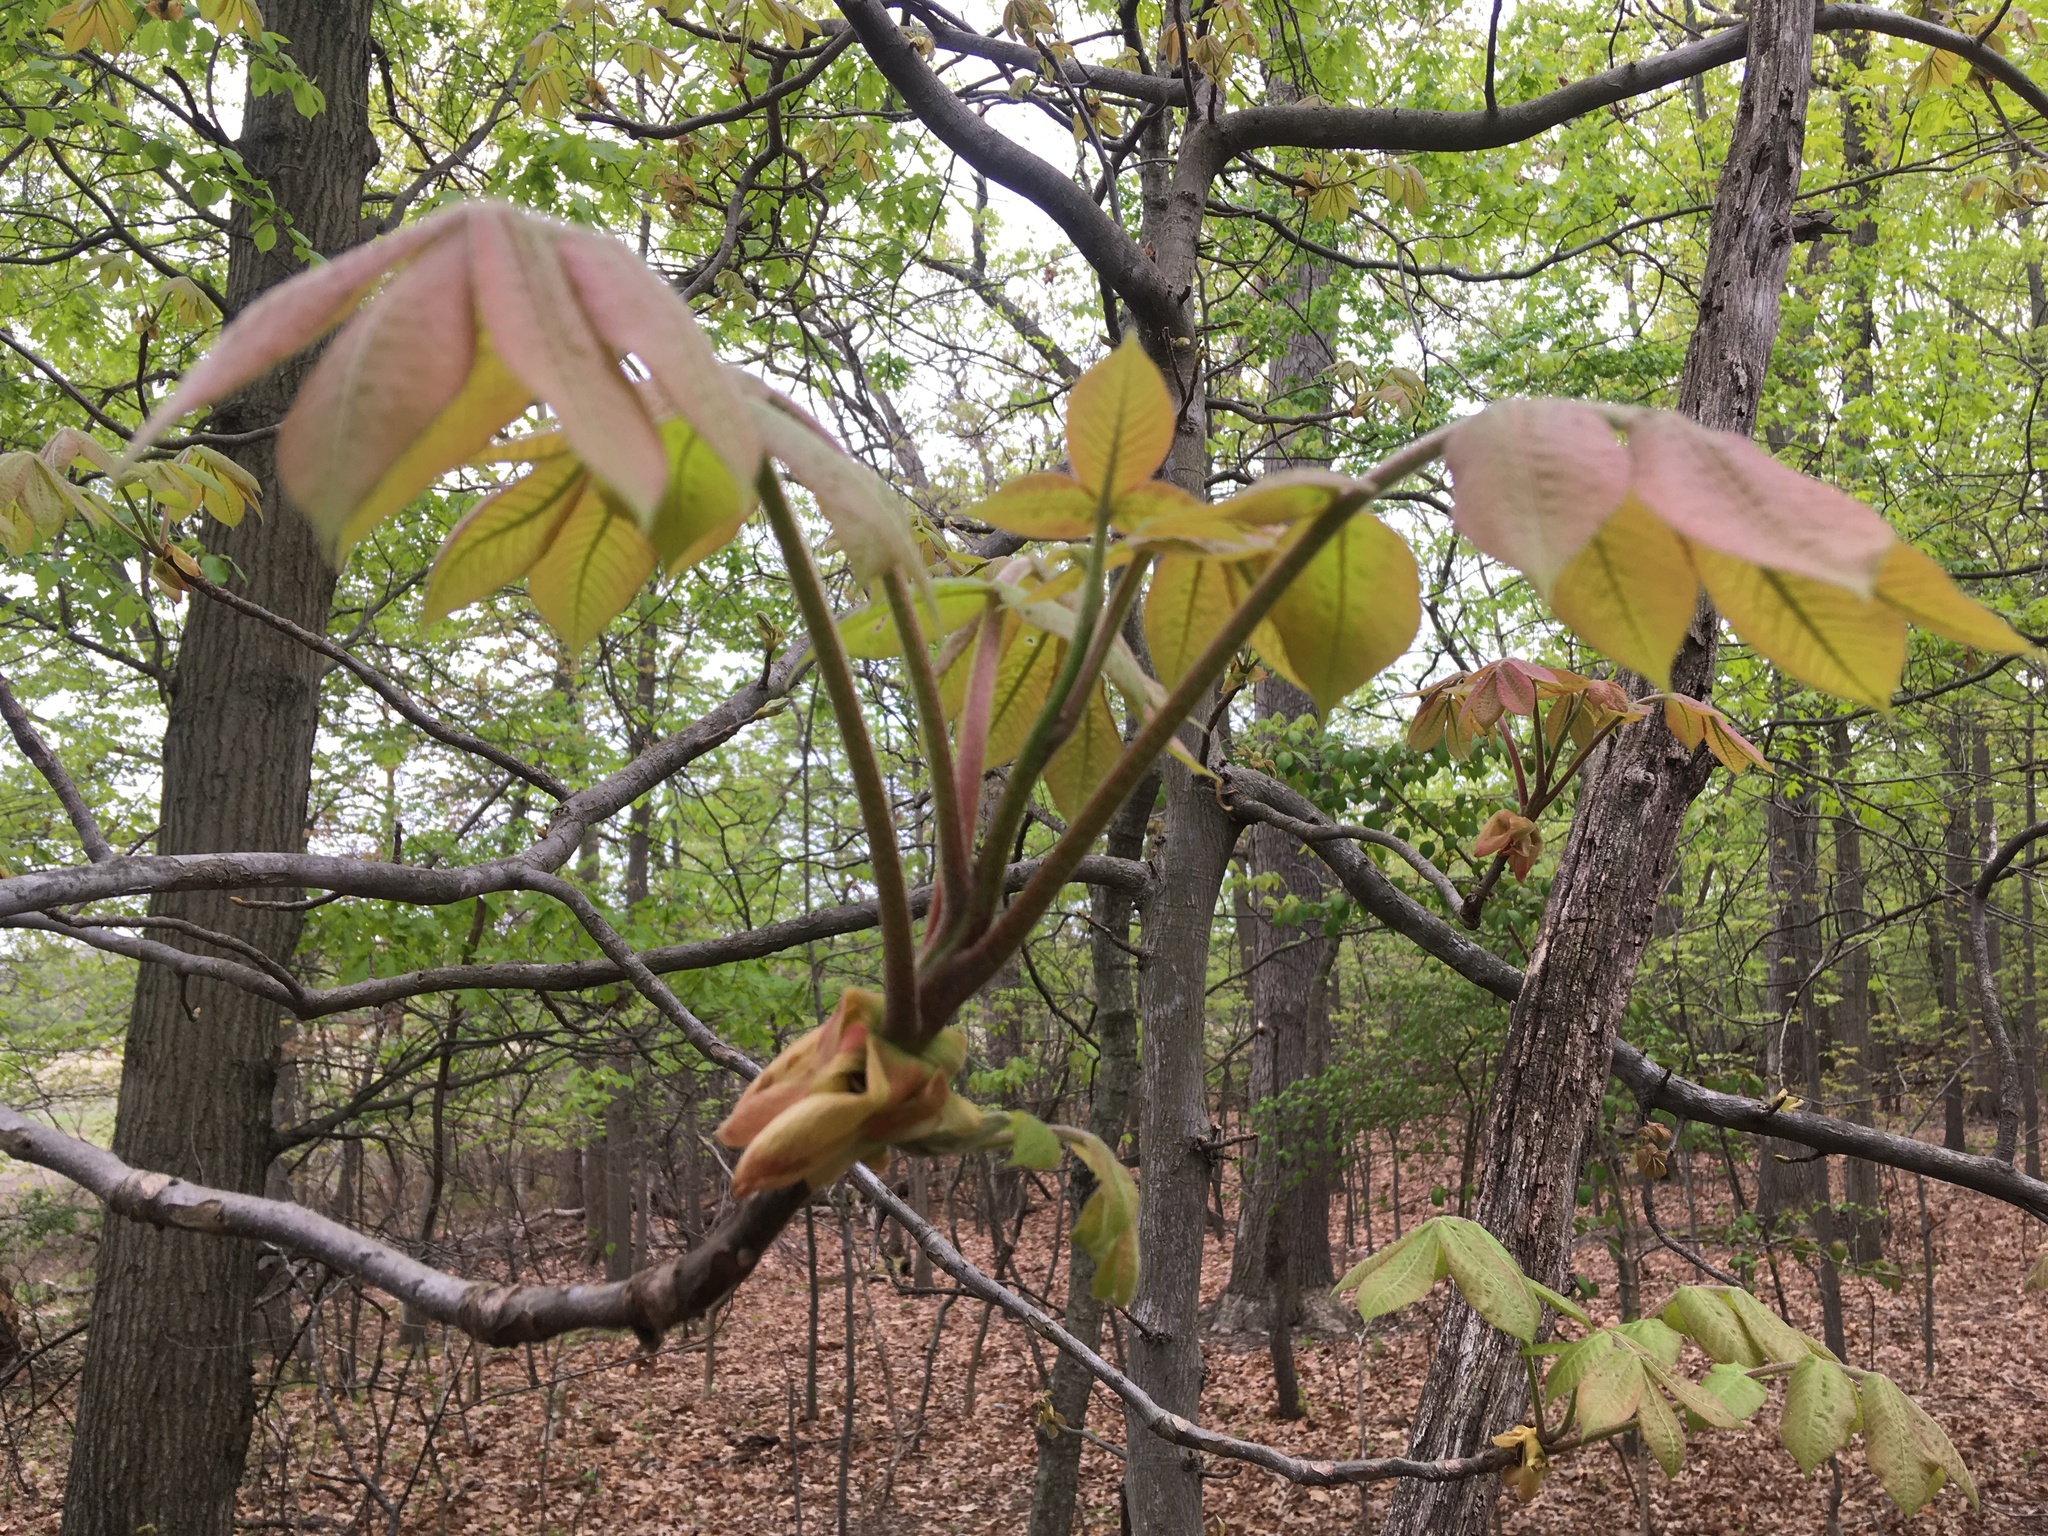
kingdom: Plantae
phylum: Tracheophyta
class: Magnoliopsida
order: Fagales
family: Juglandaceae
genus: Carya
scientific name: Carya alba
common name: Mockernut hickory
